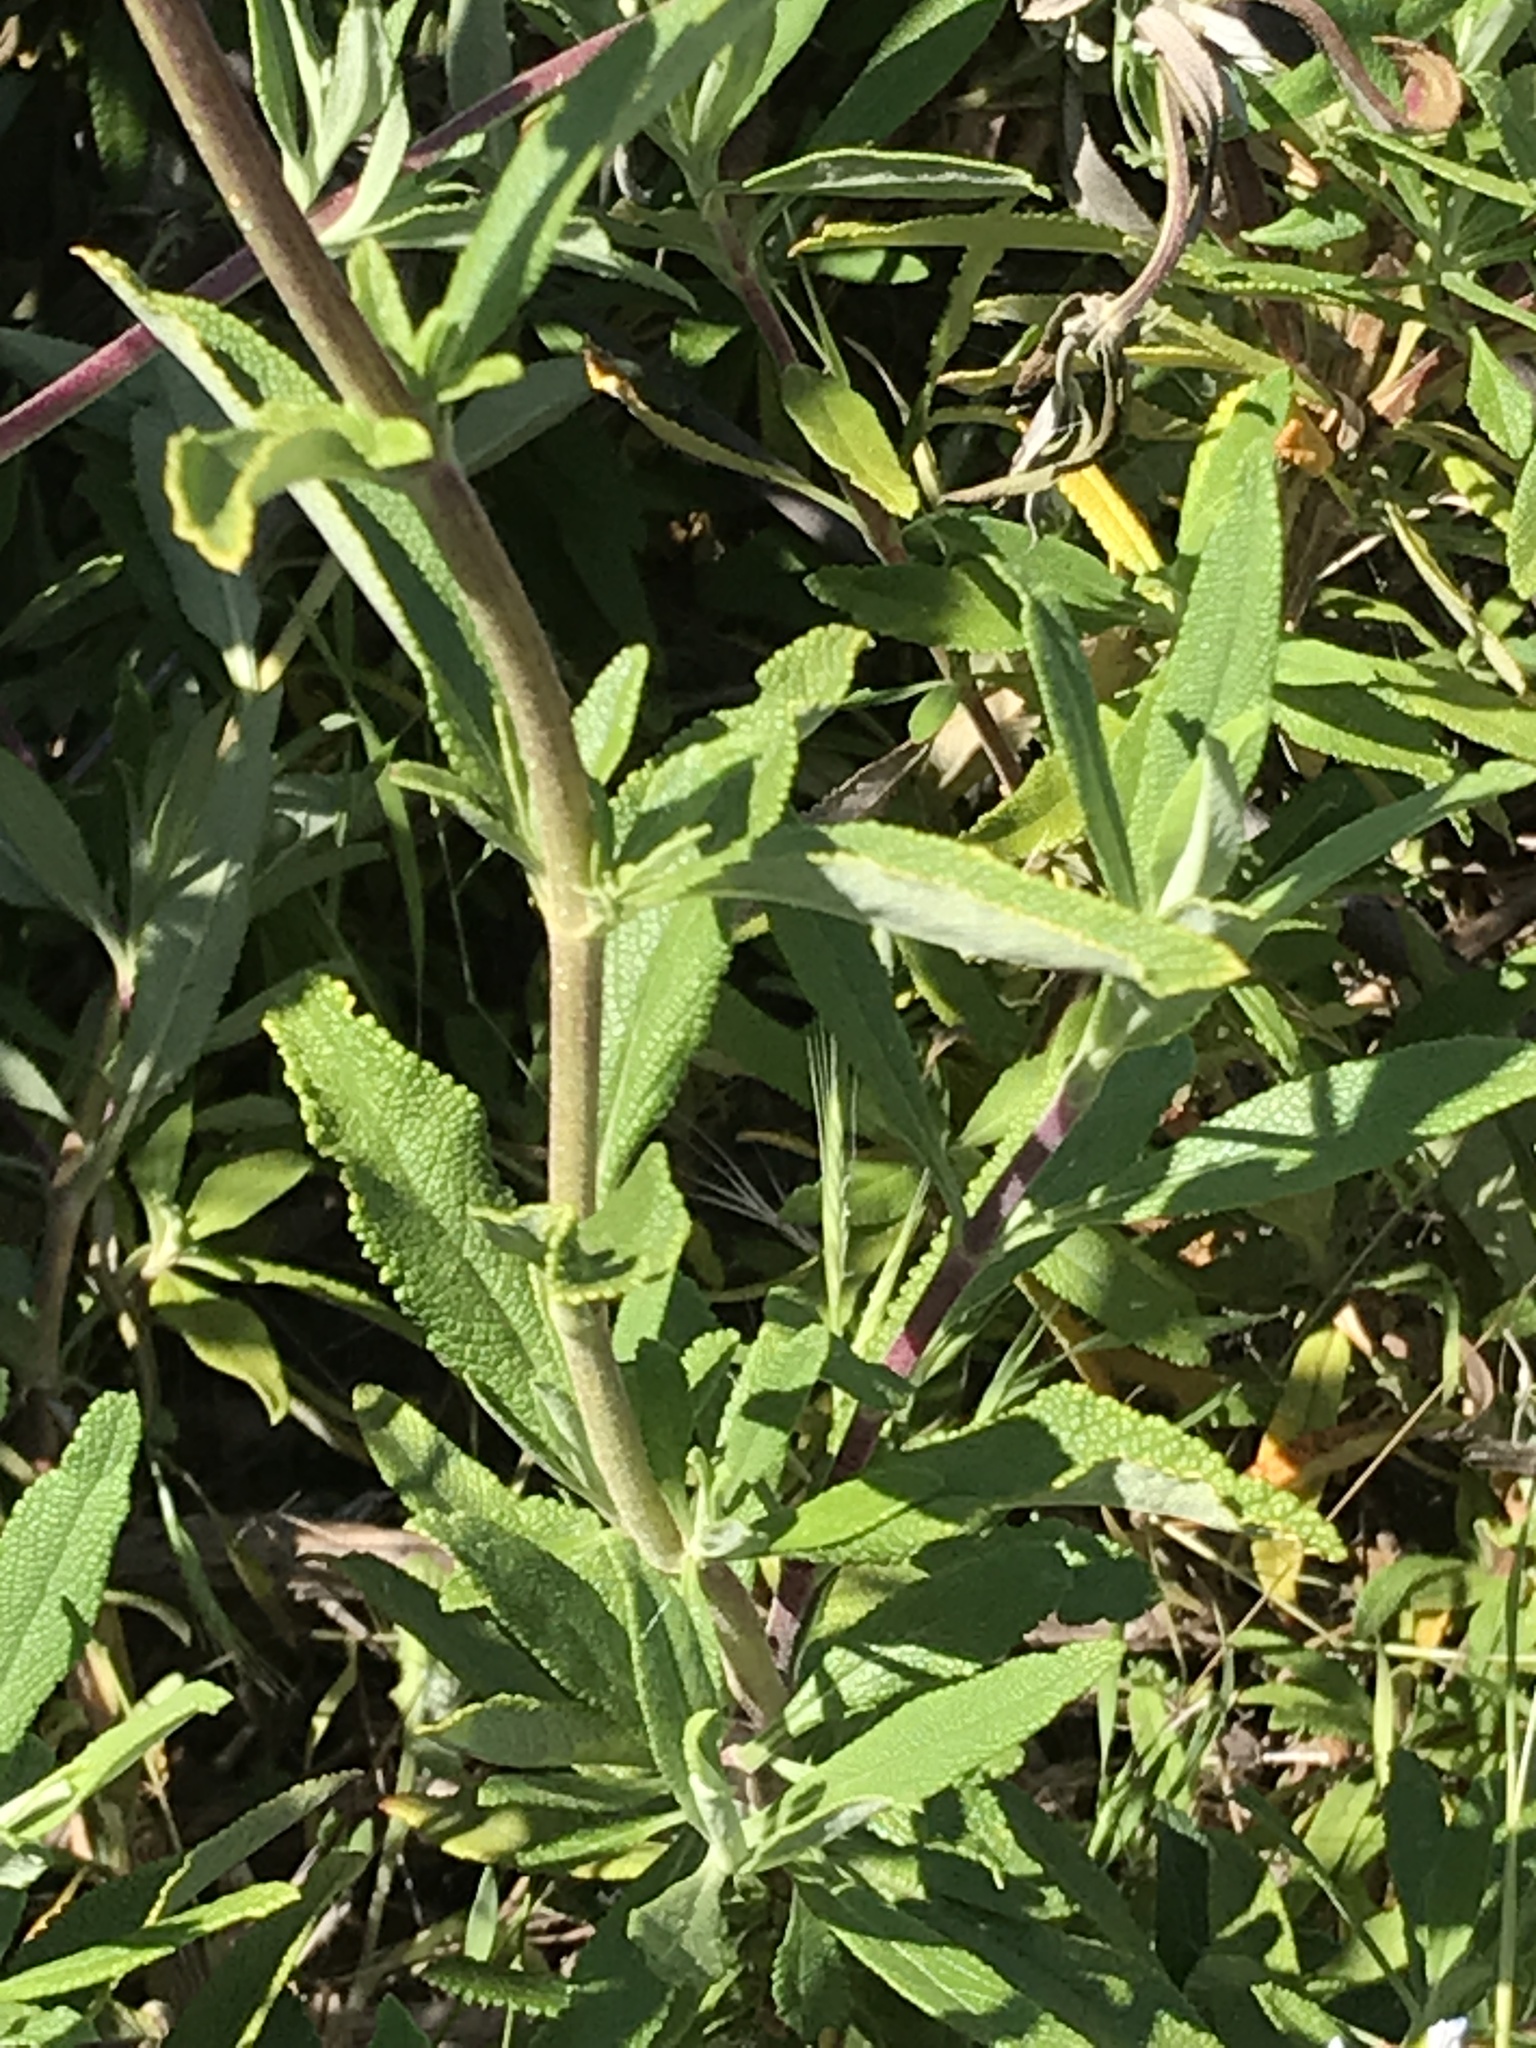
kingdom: Plantae
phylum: Tracheophyta
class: Magnoliopsida
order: Lamiales
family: Lamiaceae
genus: Salvia
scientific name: Salvia mellifera
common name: Black sage
